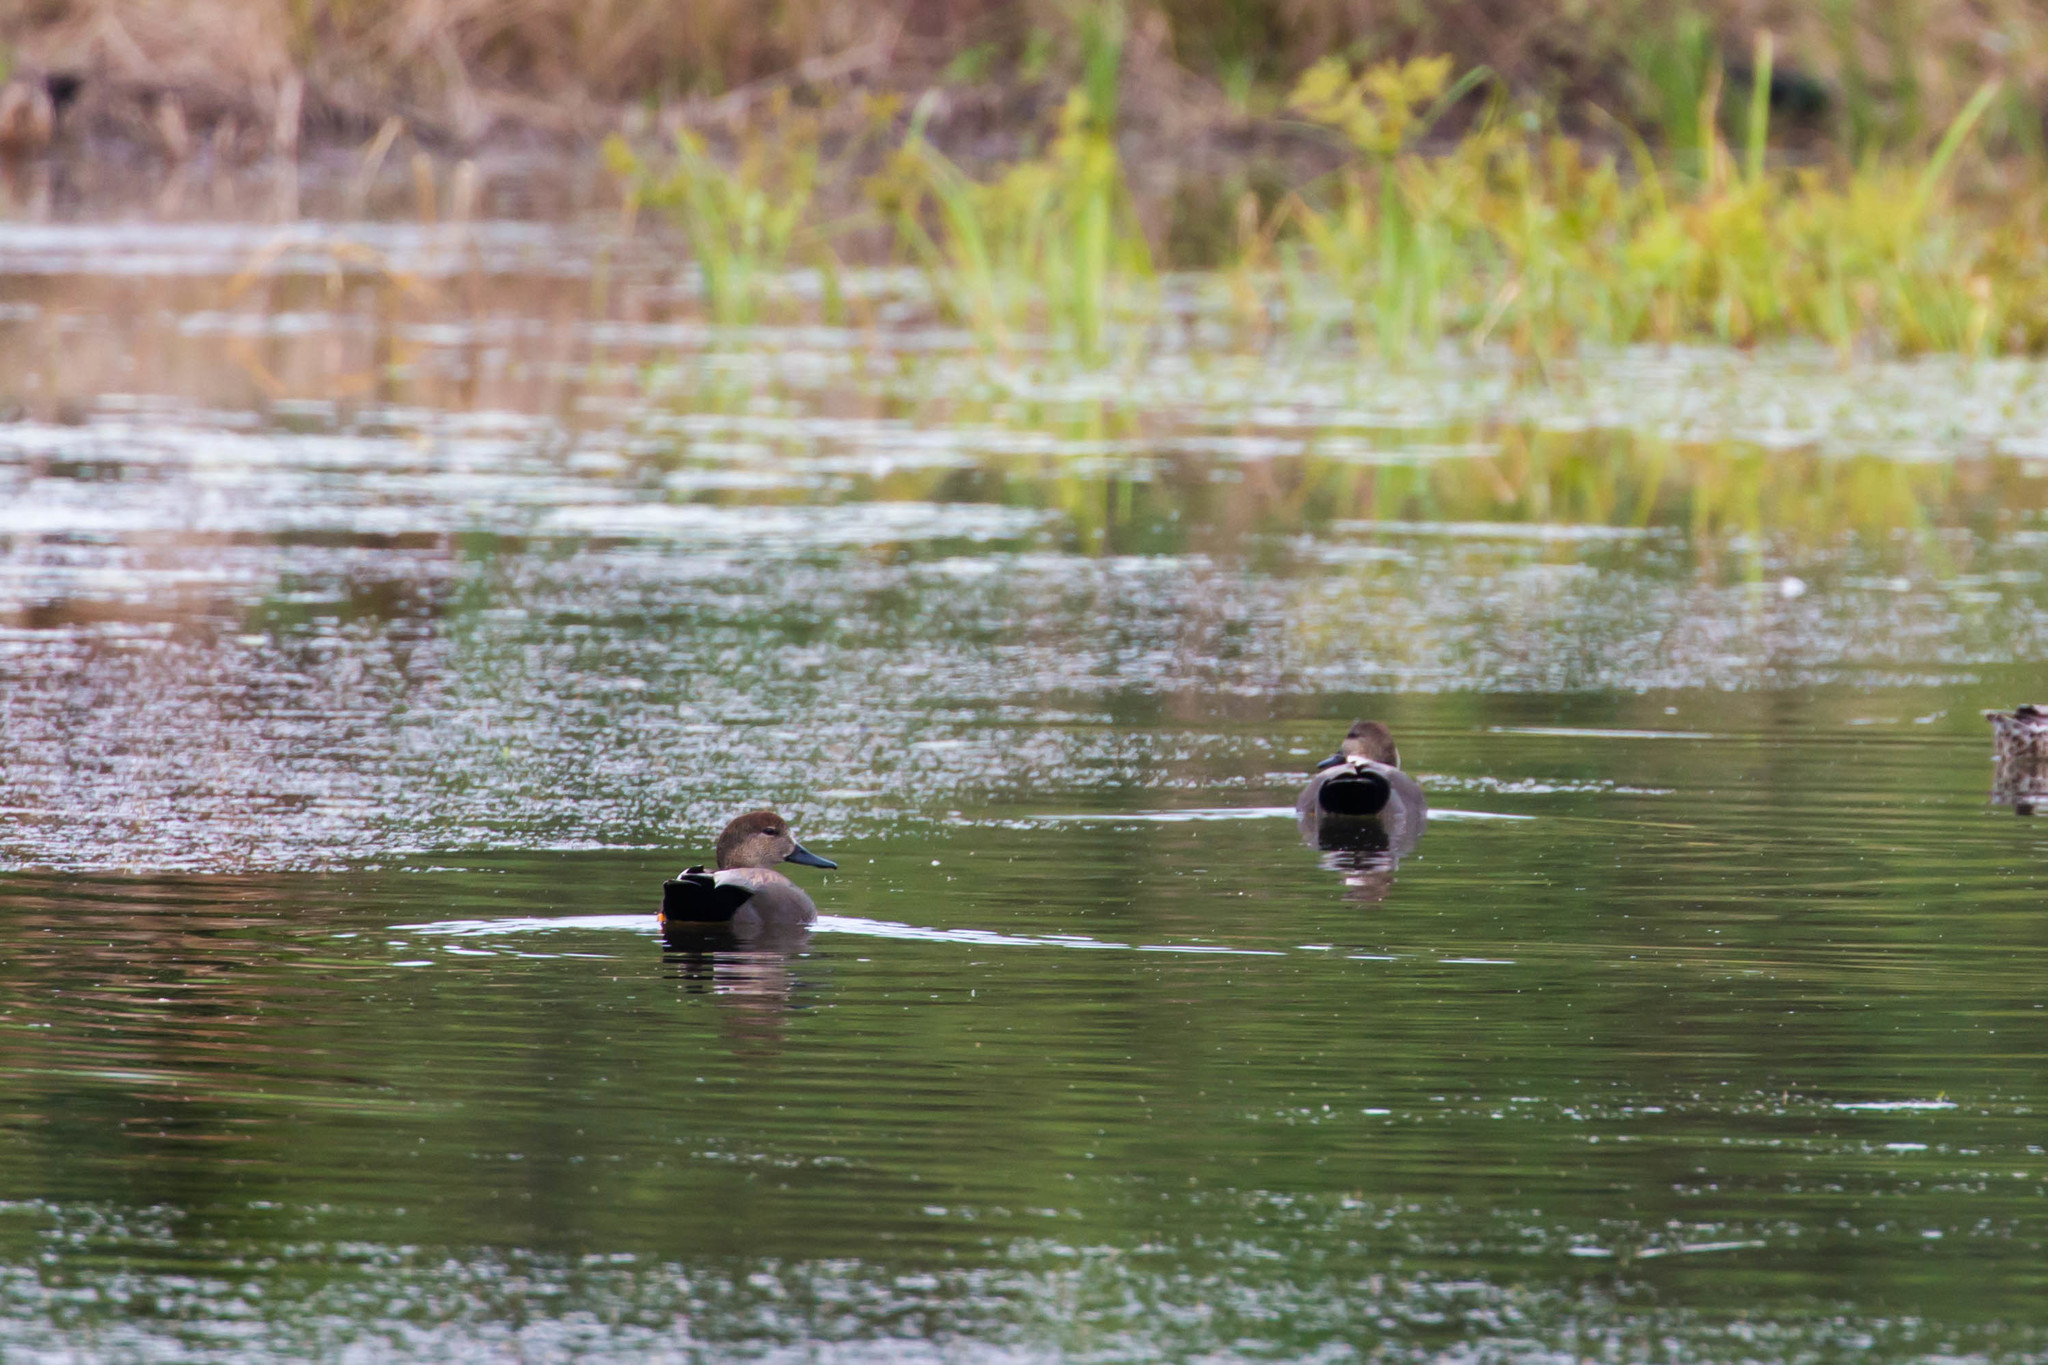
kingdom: Animalia
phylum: Chordata
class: Aves
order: Anseriformes
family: Anatidae
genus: Mareca
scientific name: Mareca strepera
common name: Gadwall
